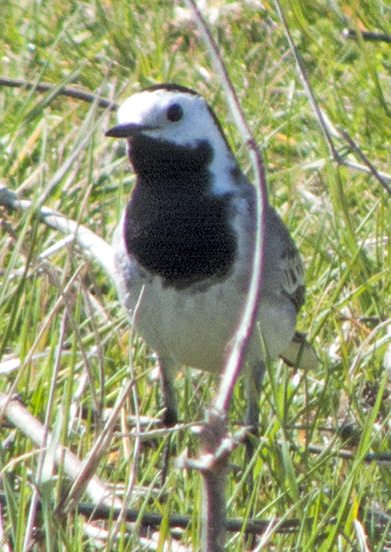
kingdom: Animalia
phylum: Chordata
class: Aves
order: Passeriformes
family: Motacillidae
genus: Motacilla
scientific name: Motacilla alba
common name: White wagtail
